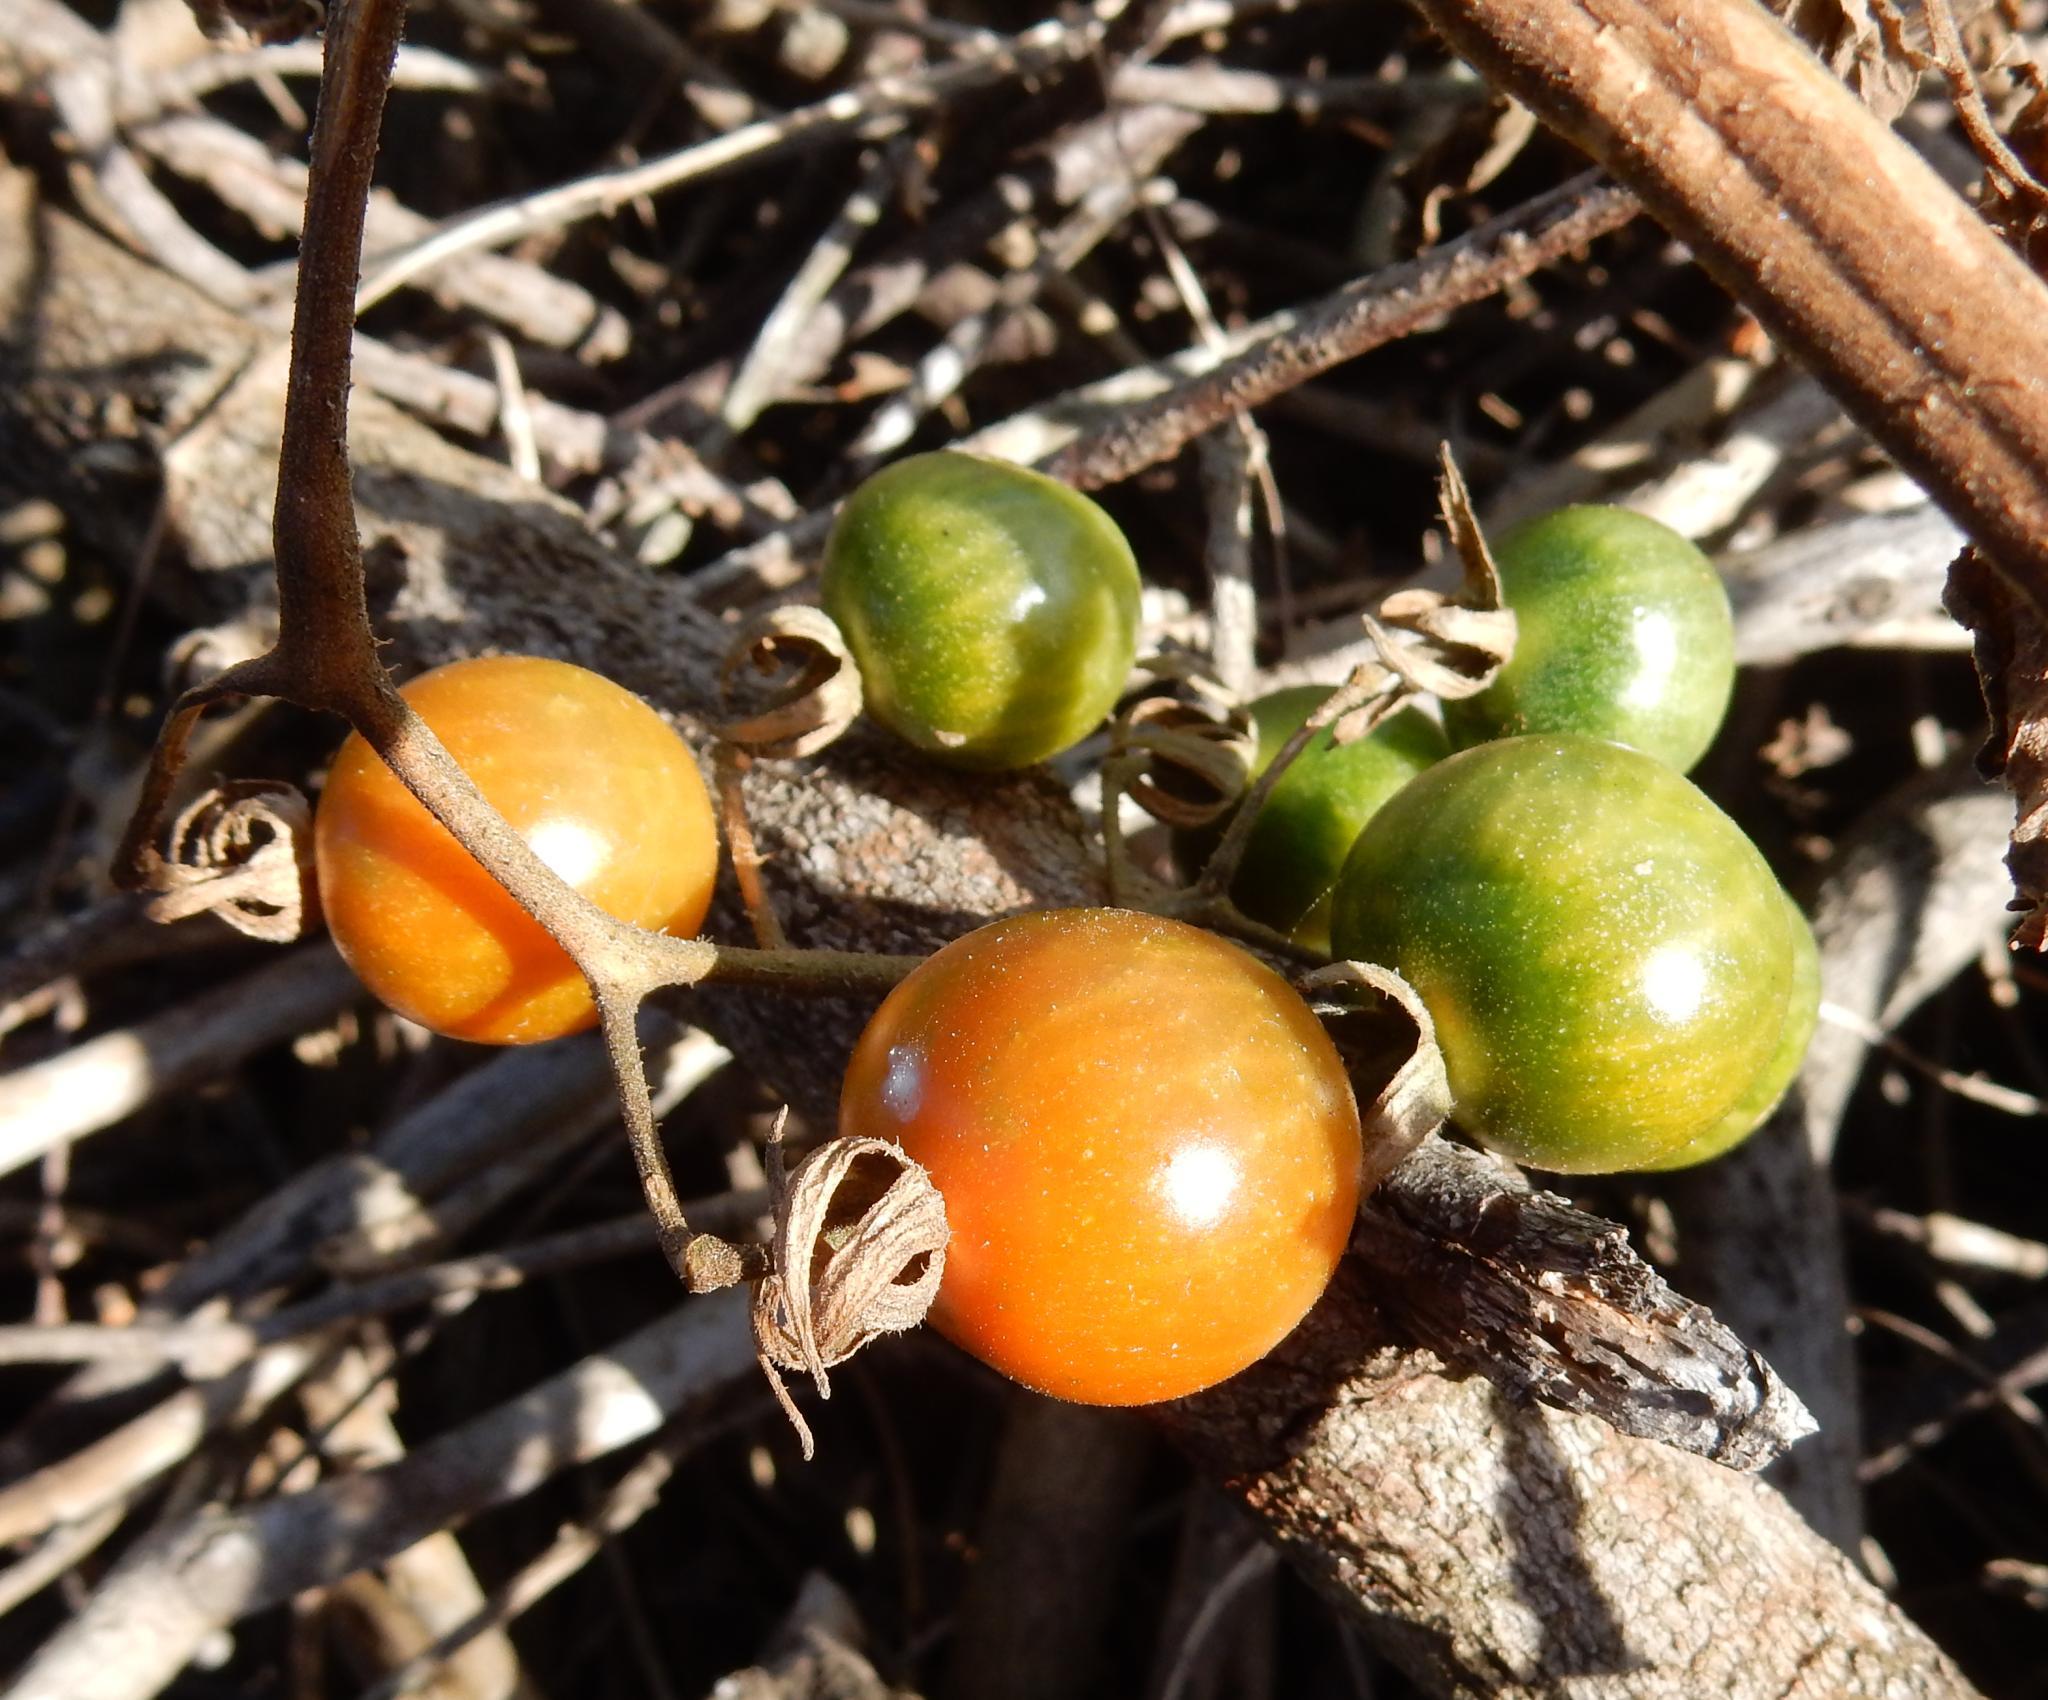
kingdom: Plantae
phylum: Tracheophyta
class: Magnoliopsida
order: Solanales
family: Solanaceae
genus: Solanum
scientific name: Solanum lycopersicum
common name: Garden tomato
